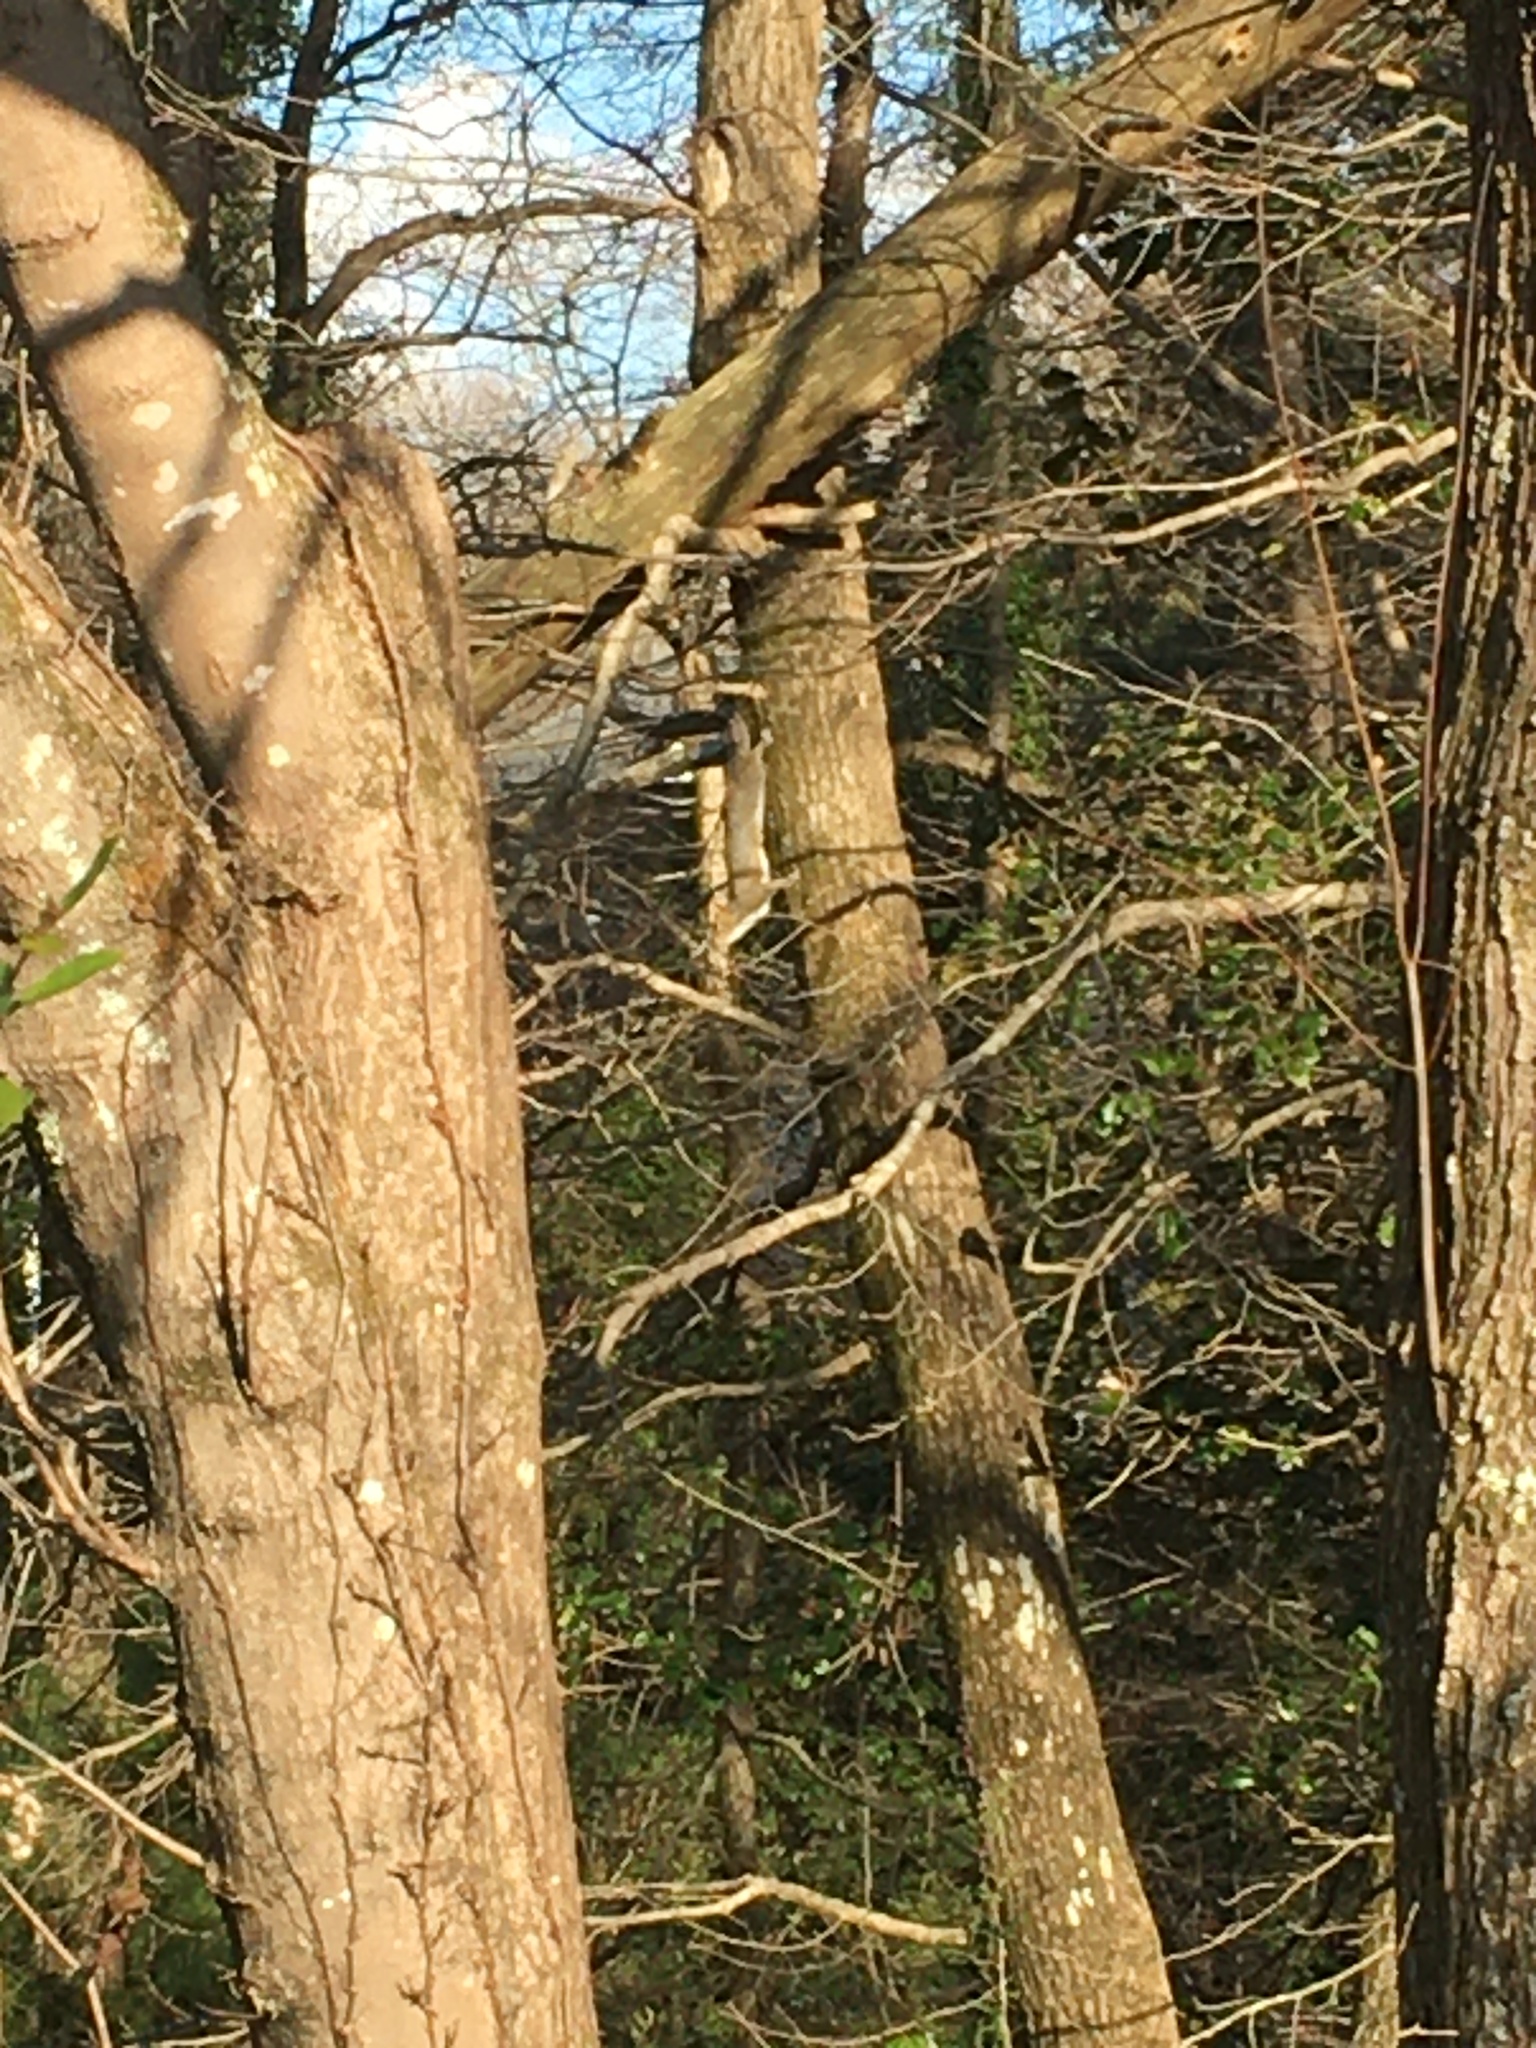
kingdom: Animalia
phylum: Chordata
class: Mammalia
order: Rodentia
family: Sciuridae
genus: Sciurus
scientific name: Sciurus carolinensis
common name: Eastern gray squirrel
